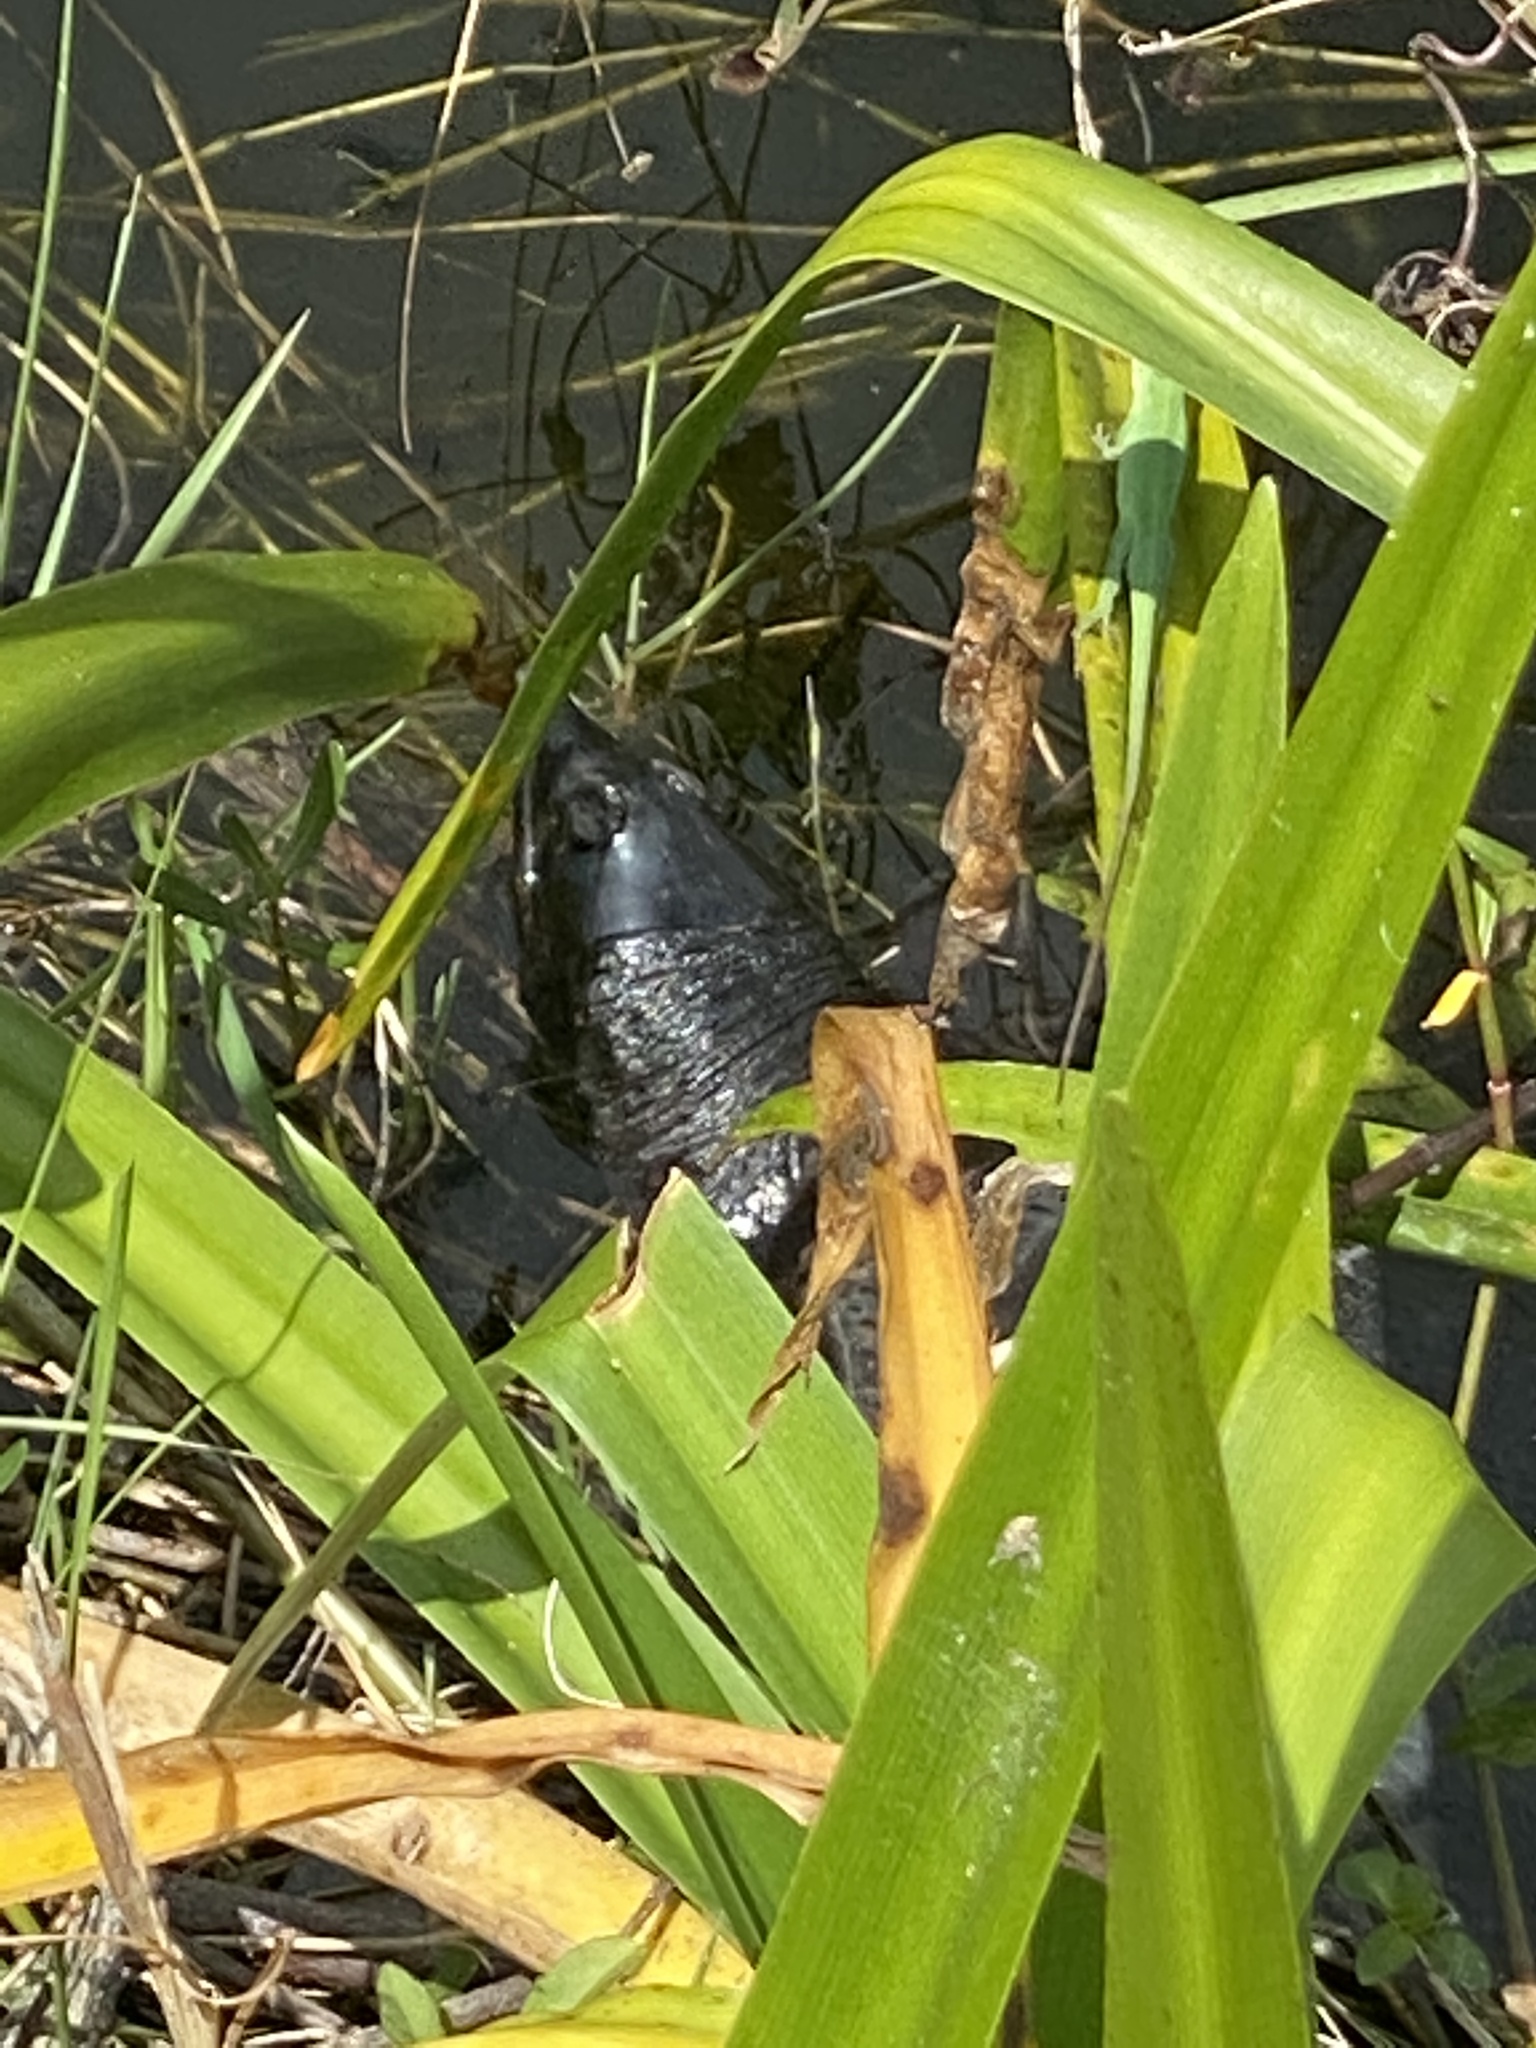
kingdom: Animalia
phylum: Chordata
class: Testudines
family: Trionychidae
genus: Apalone
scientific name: Apalone ferox
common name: Florida softshell turtle
